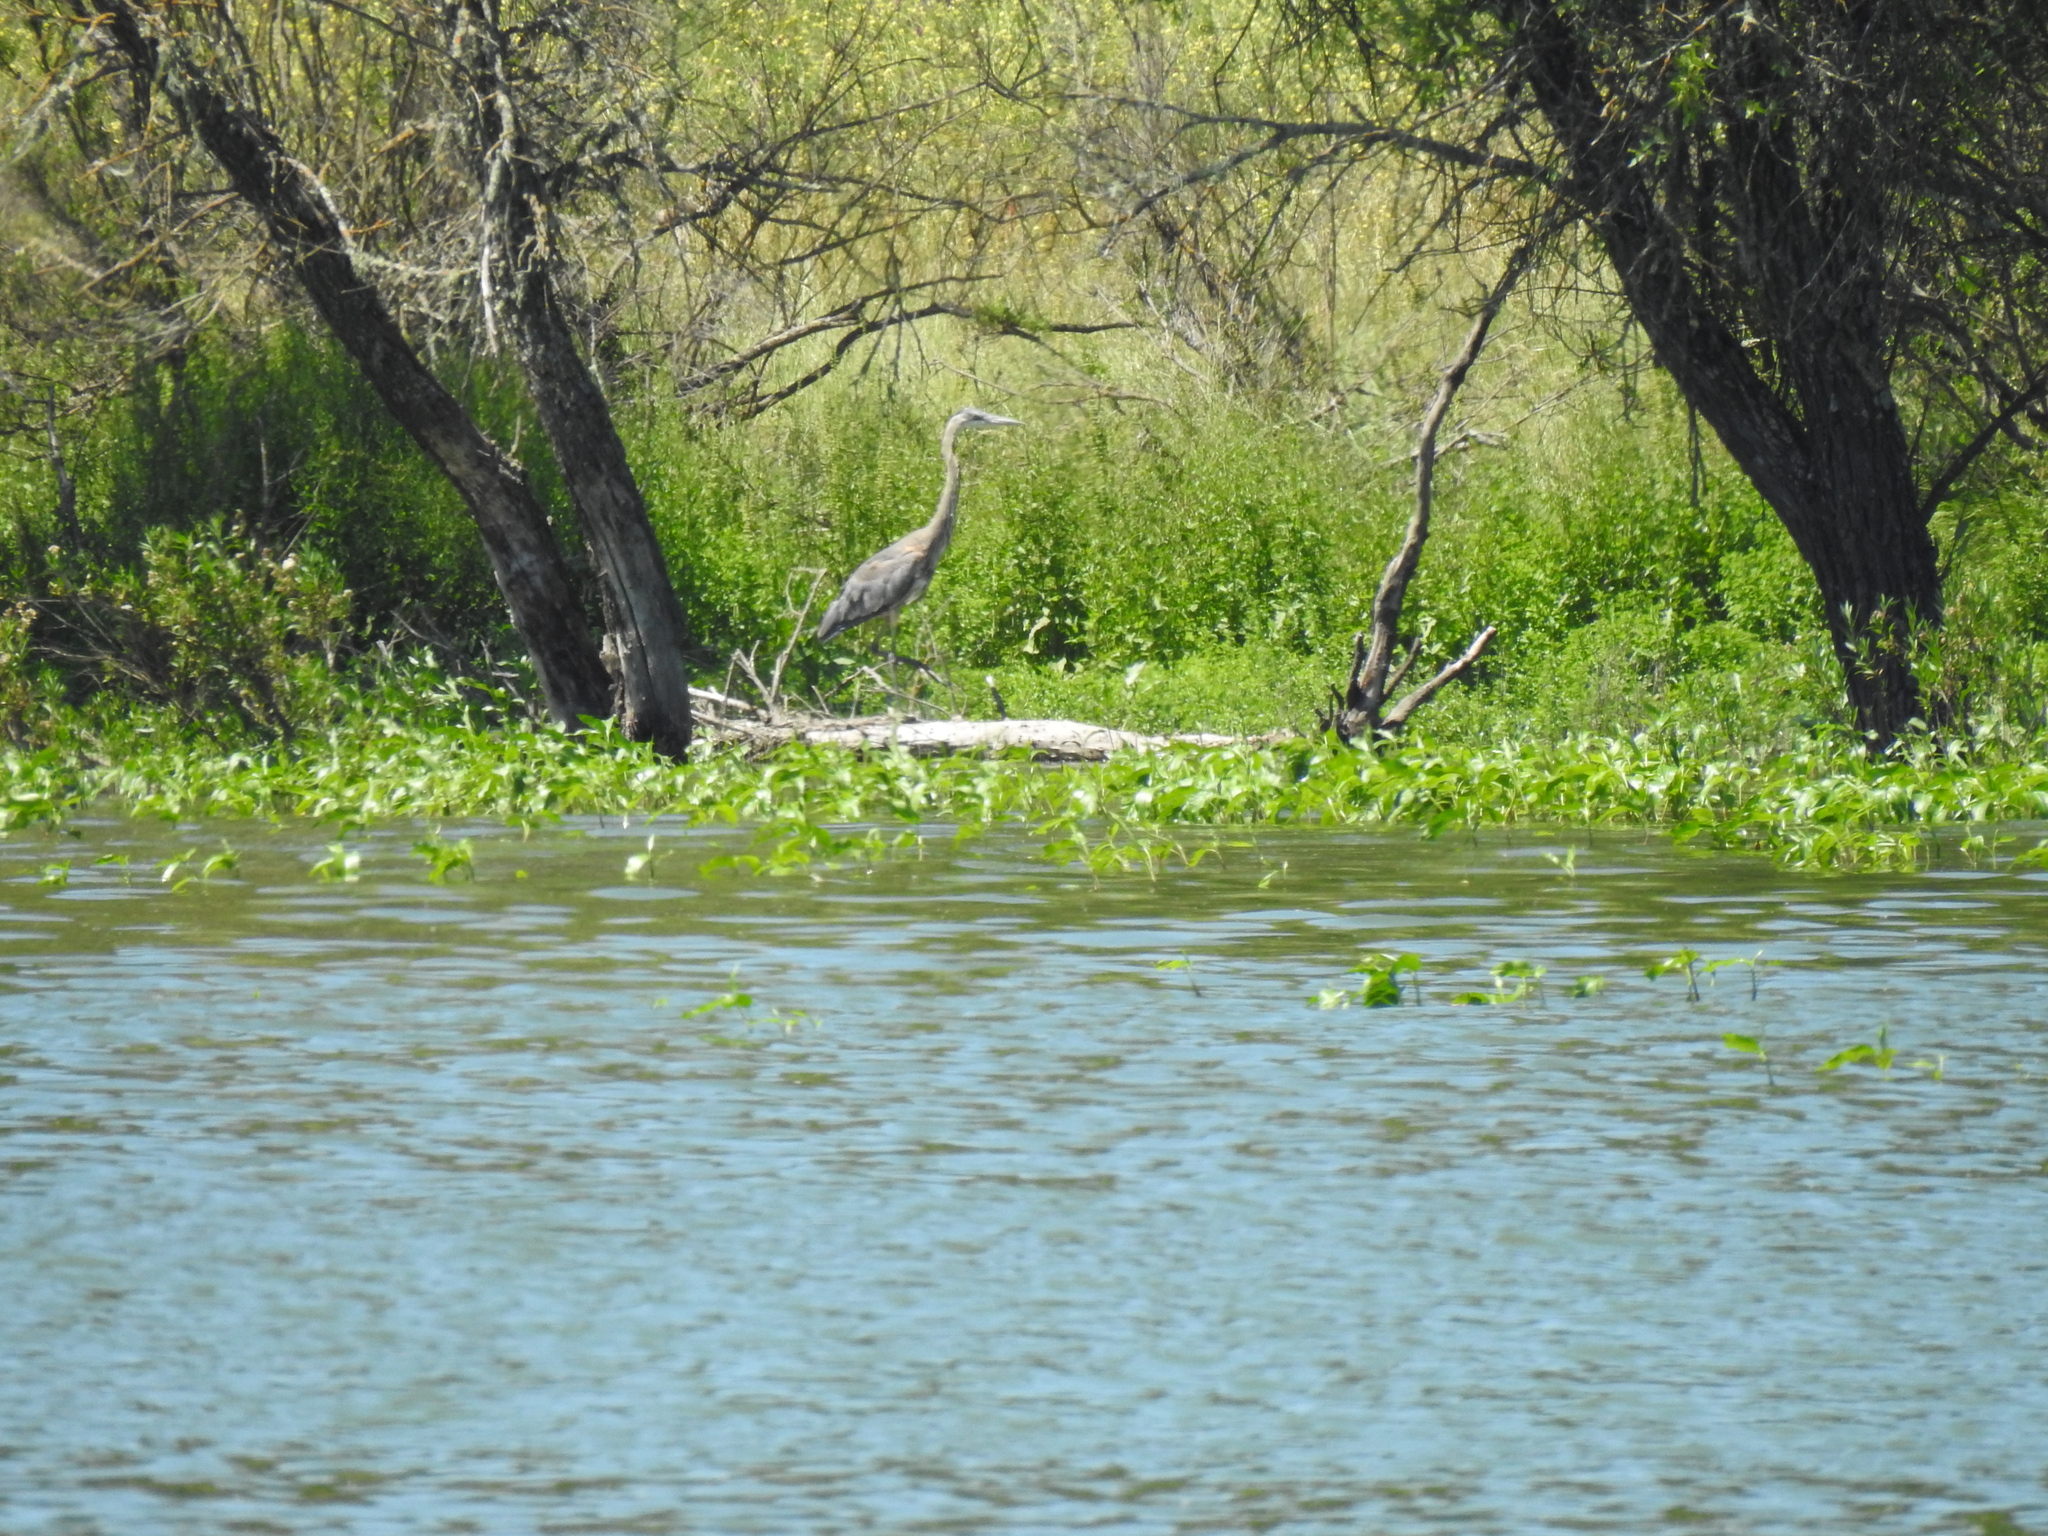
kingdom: Animalia
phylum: Chordata
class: Aves
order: Pelecaniformes
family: Ardeidae
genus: Ardea
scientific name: Ardea herodias
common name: Great blue heron
